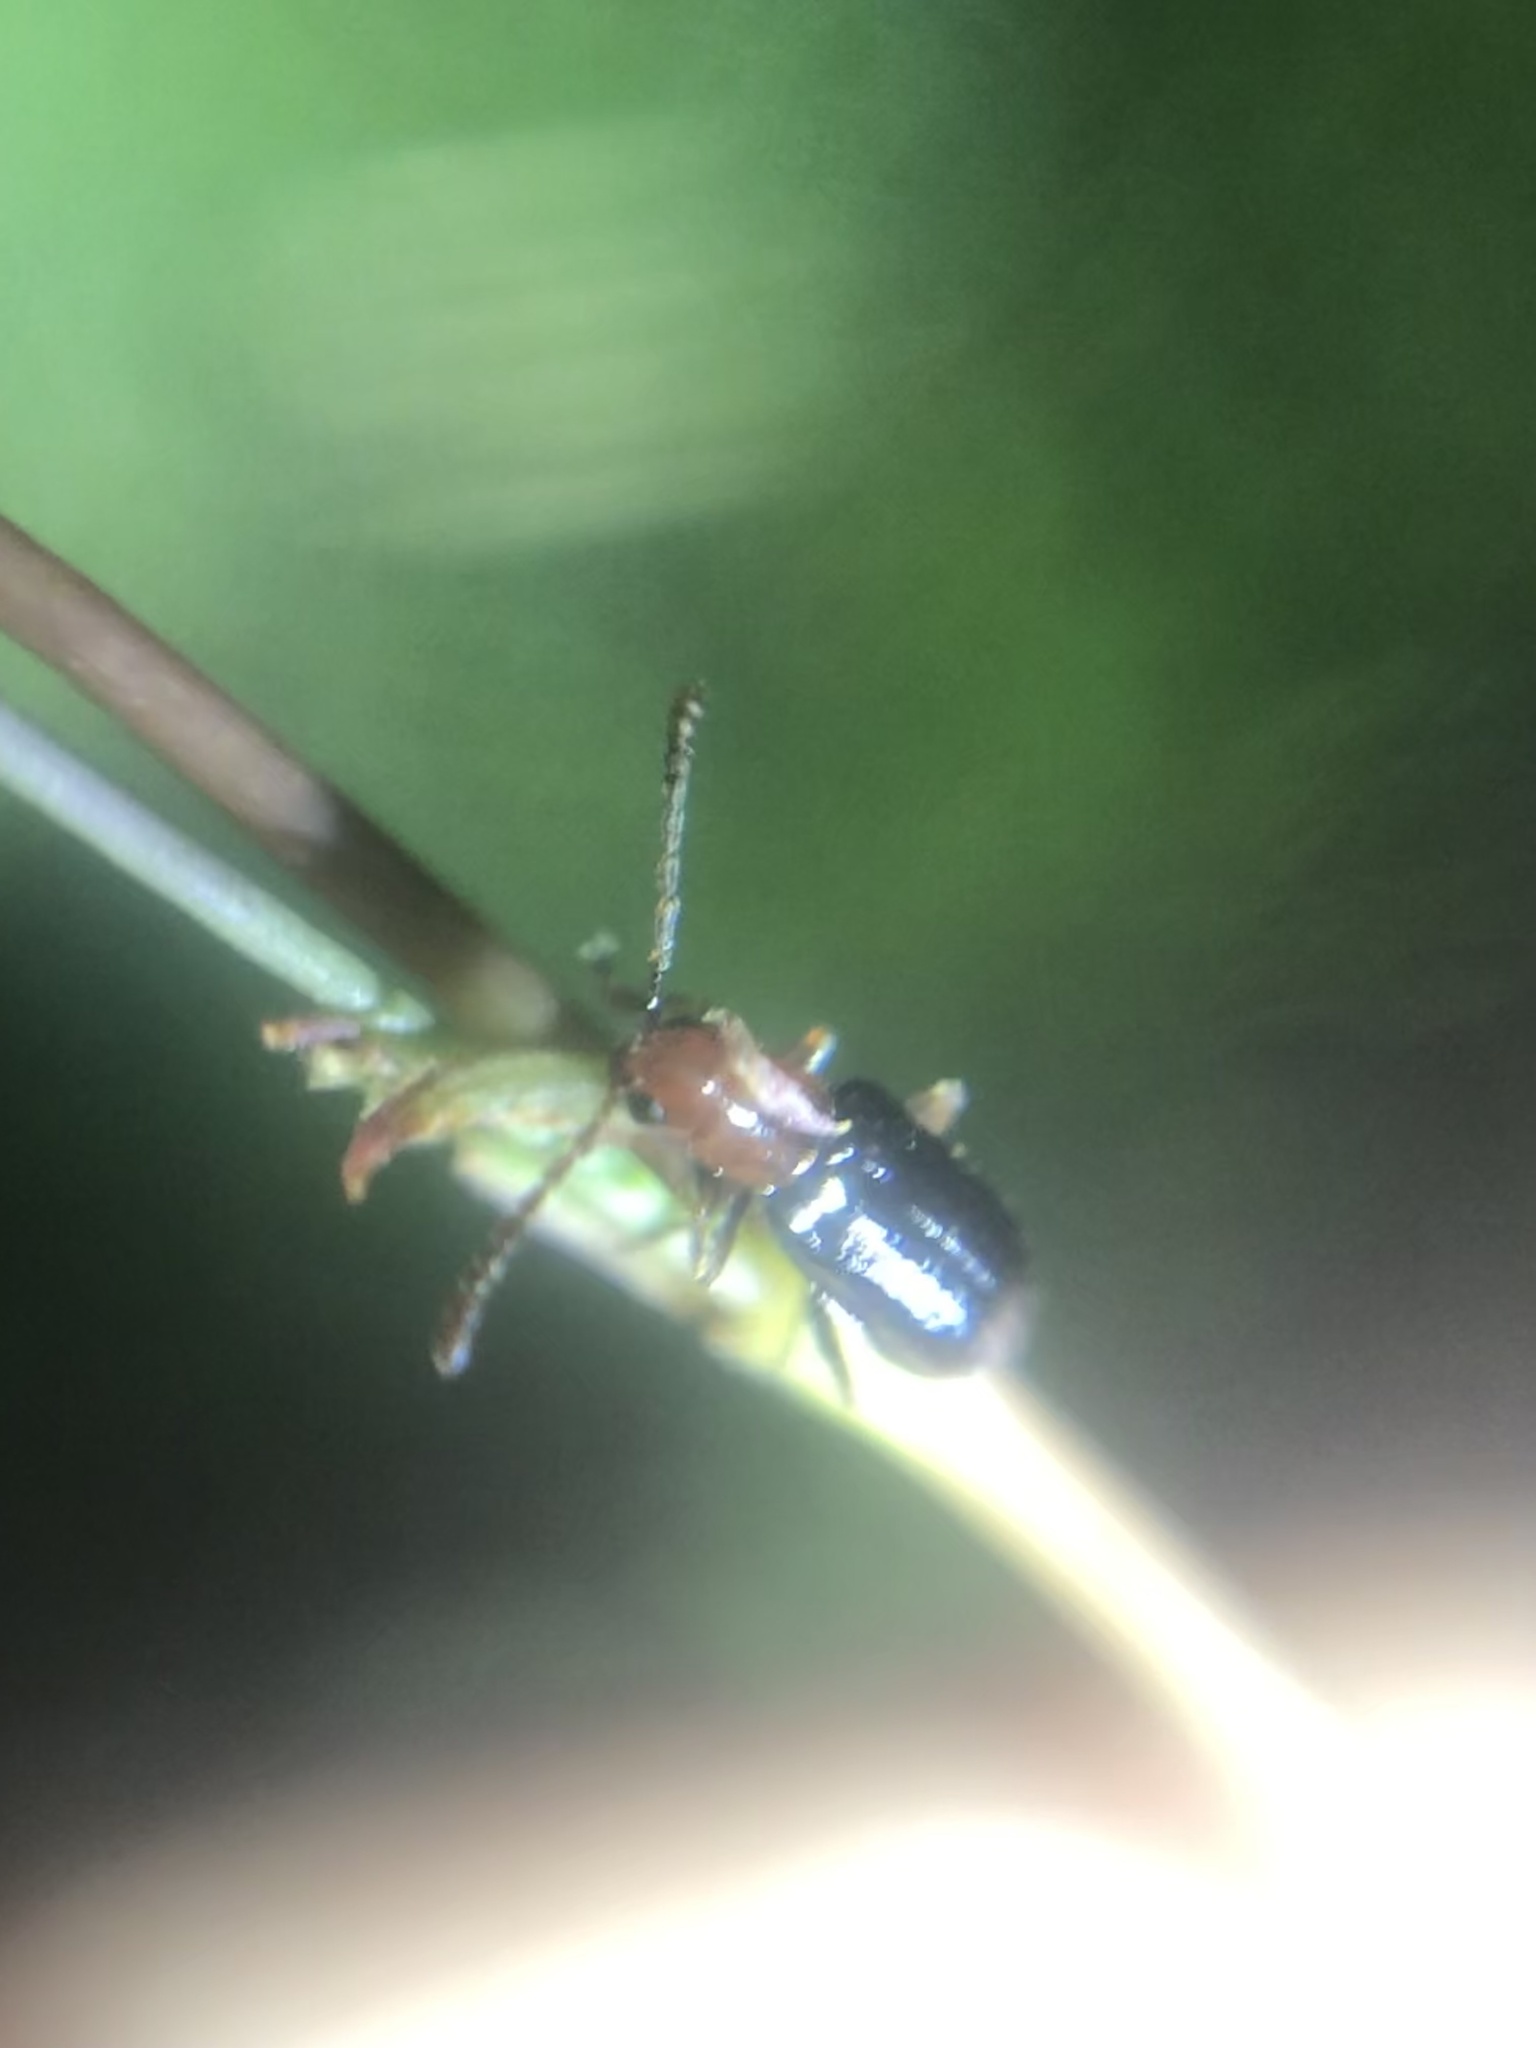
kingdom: Animalia
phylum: Arthropoda
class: Insecta
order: Coleoptera
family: Chrysomelidae
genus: Luperosoma
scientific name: Luperosoma subsulcatum
